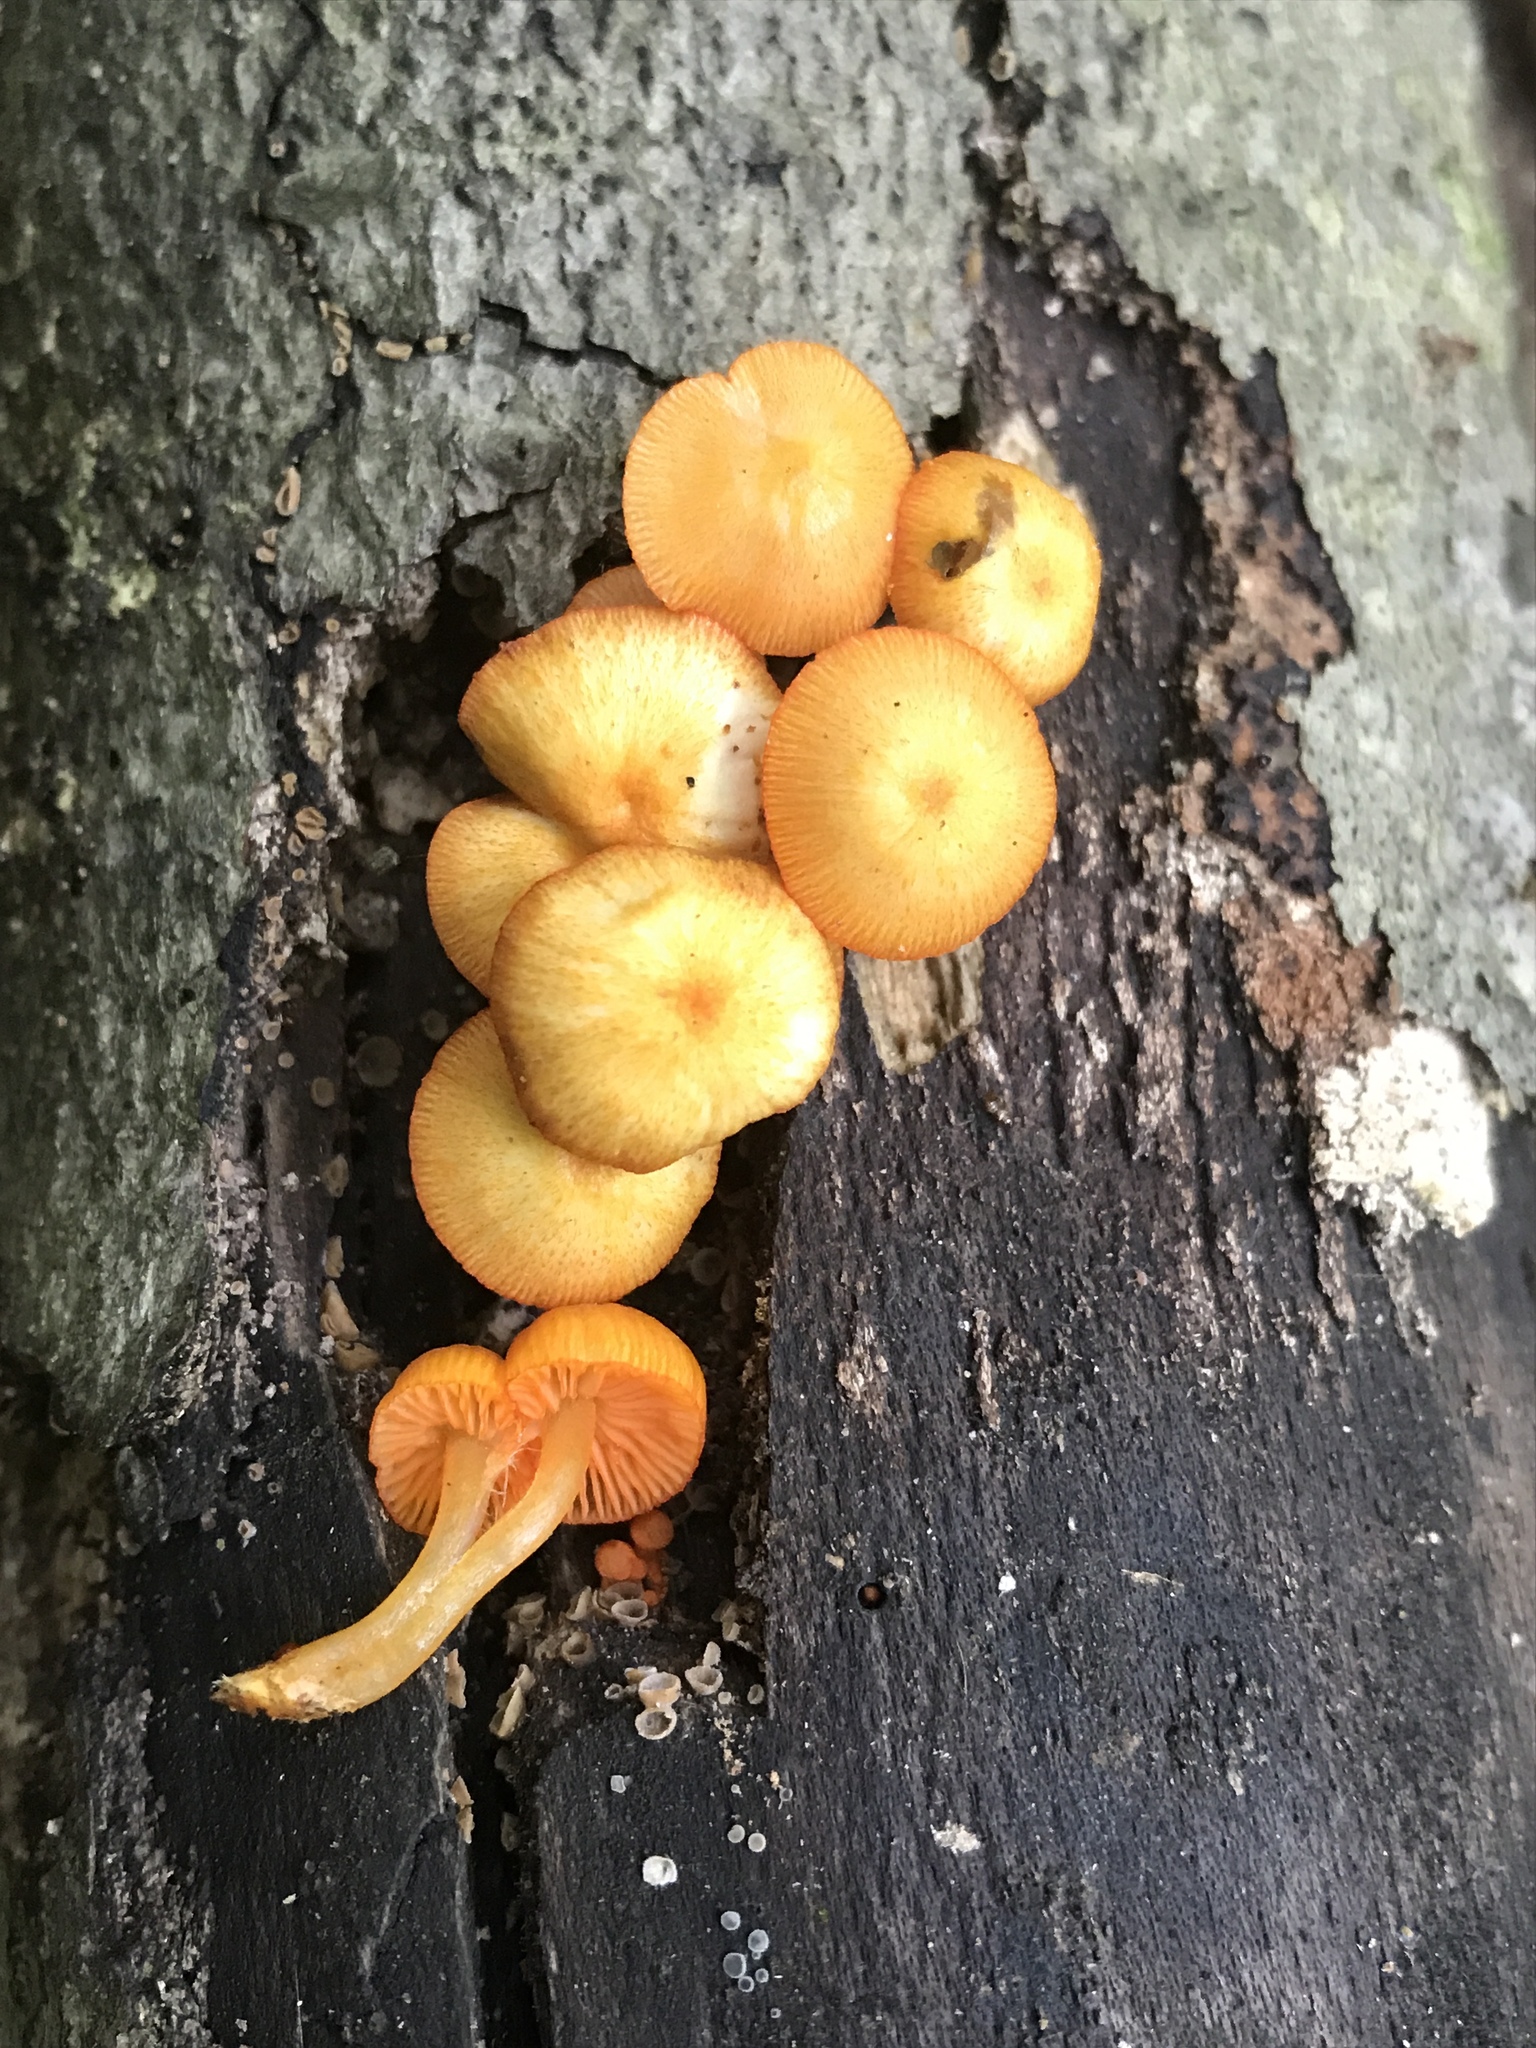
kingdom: Fungi
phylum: Basidiomycota
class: Agaricomycetes
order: Agaricales
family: Mycenaceae
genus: Mycena
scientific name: Mycena leaiana
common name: Orange mycena
